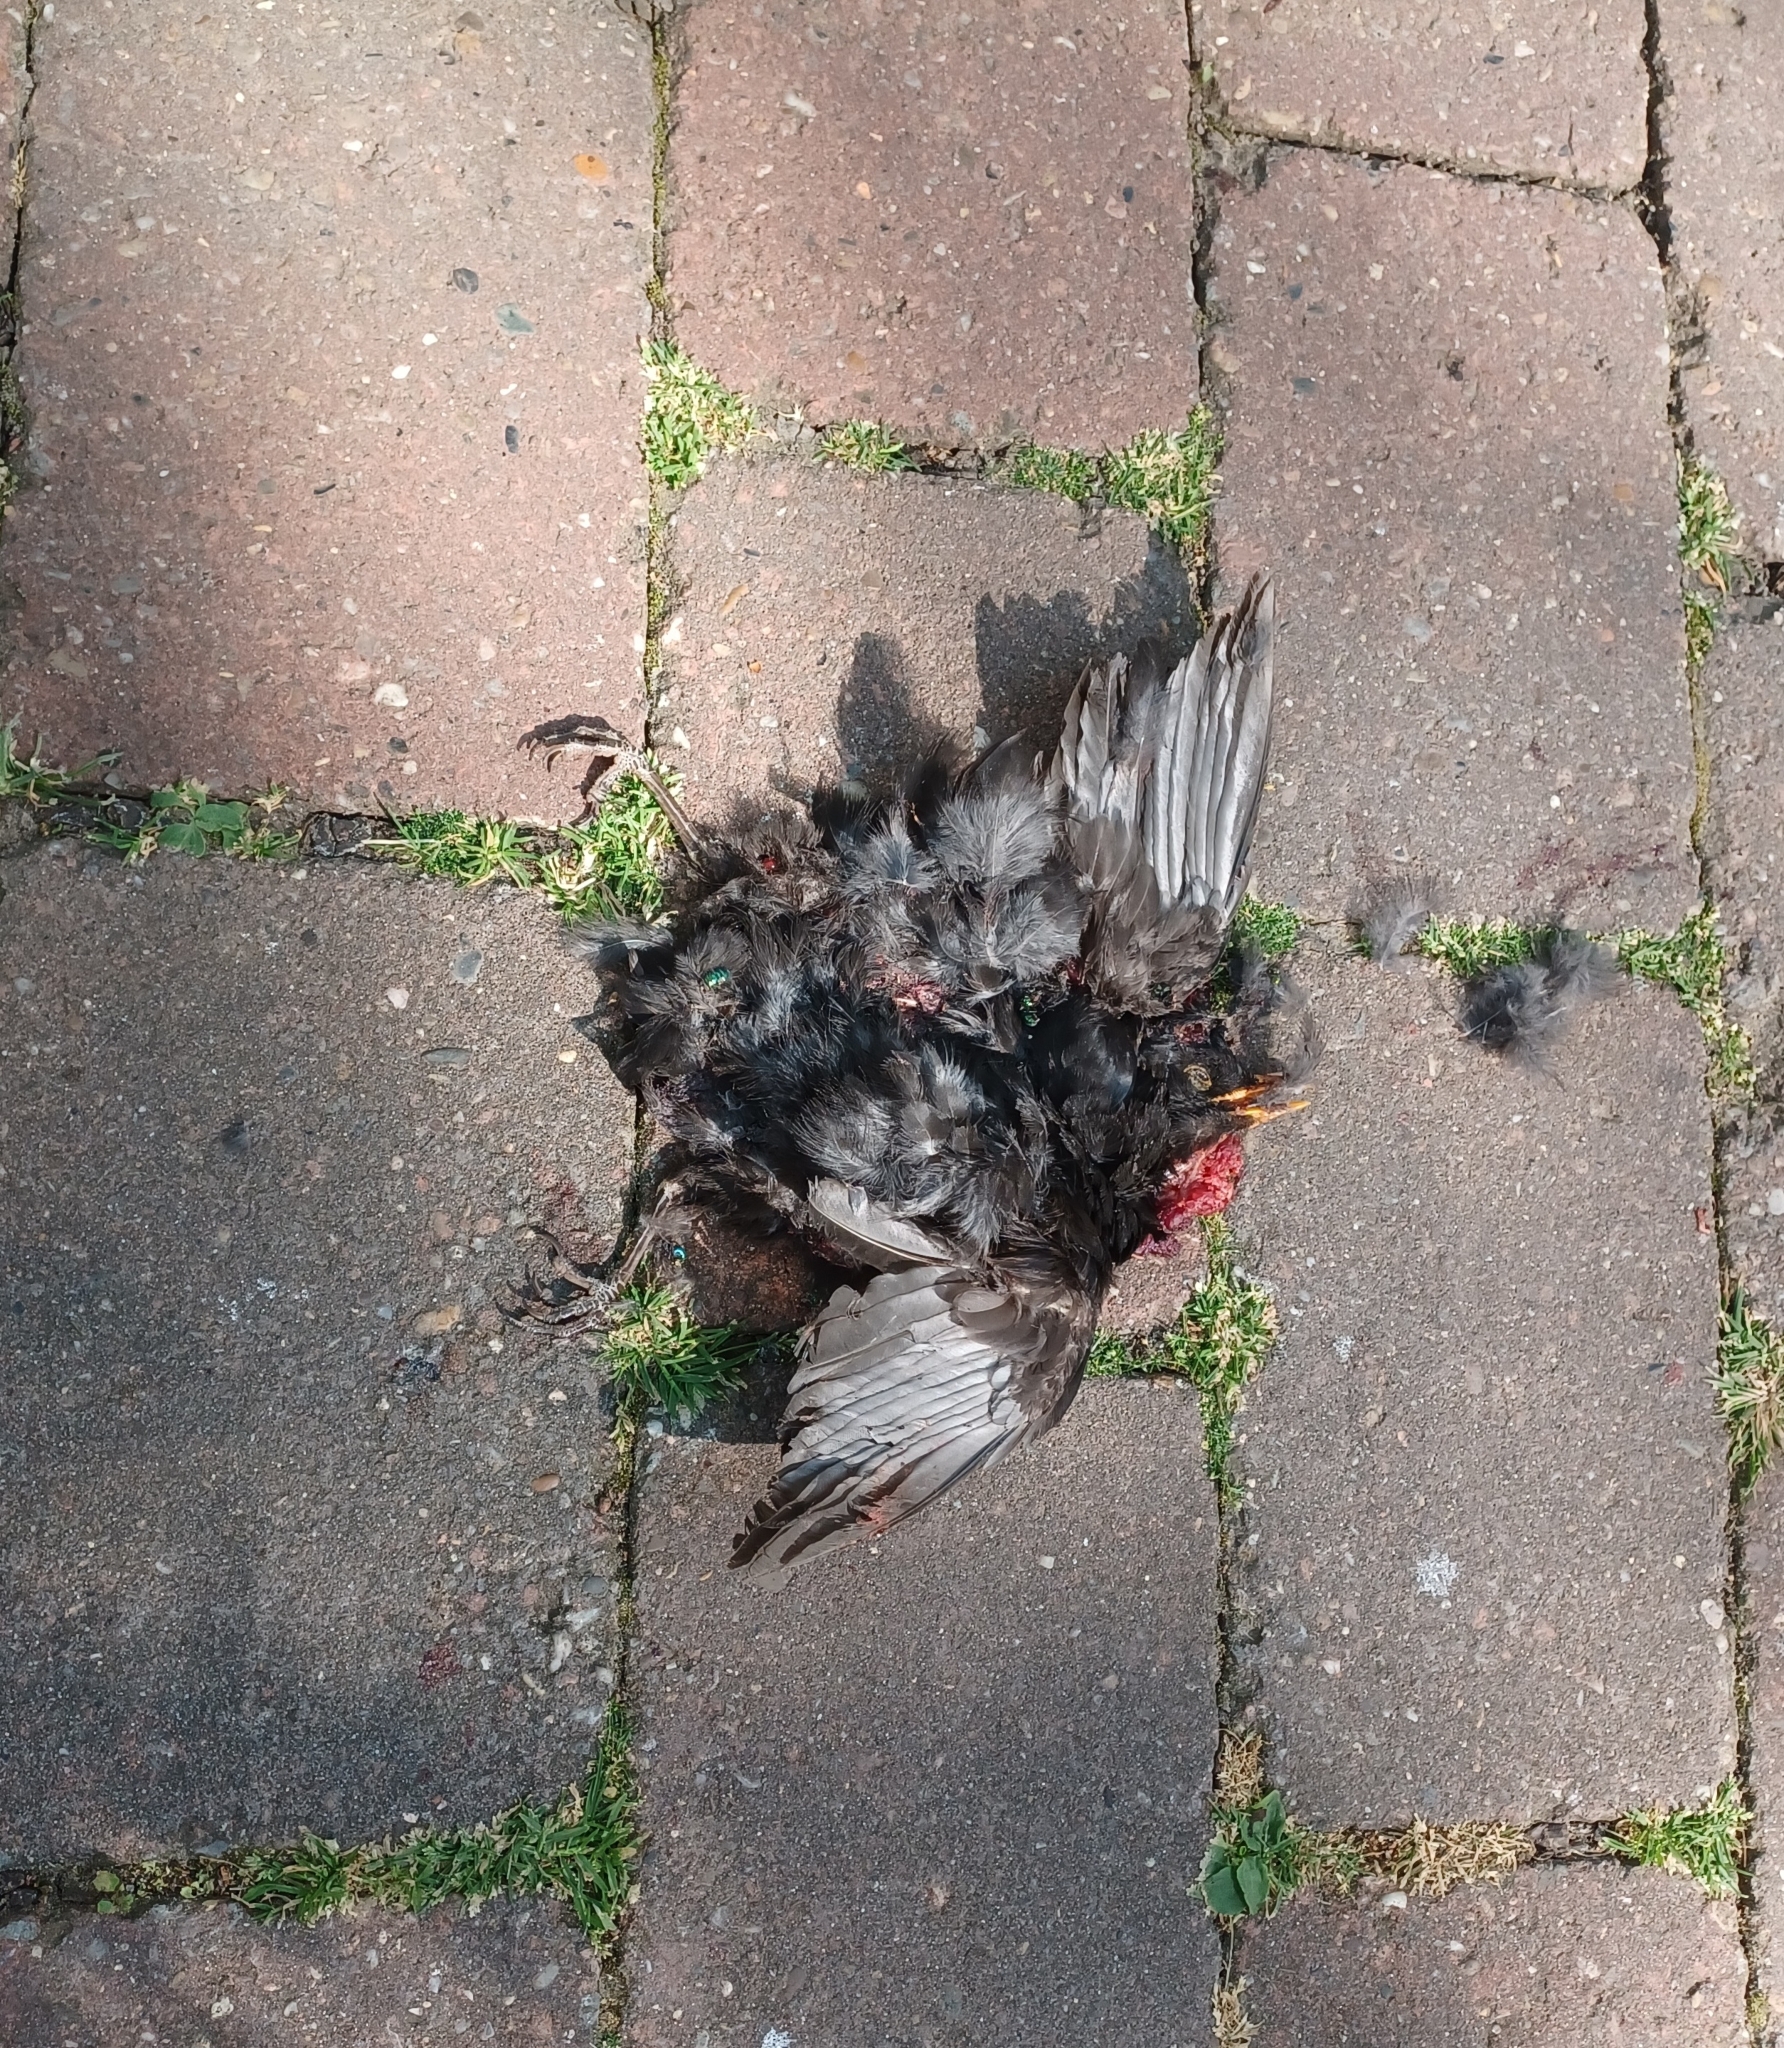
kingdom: Animalia
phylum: Chordata
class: Aves
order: Passeriformes
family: Turdidae
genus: Turdus
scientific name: Turdus merula
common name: Common blackbird
